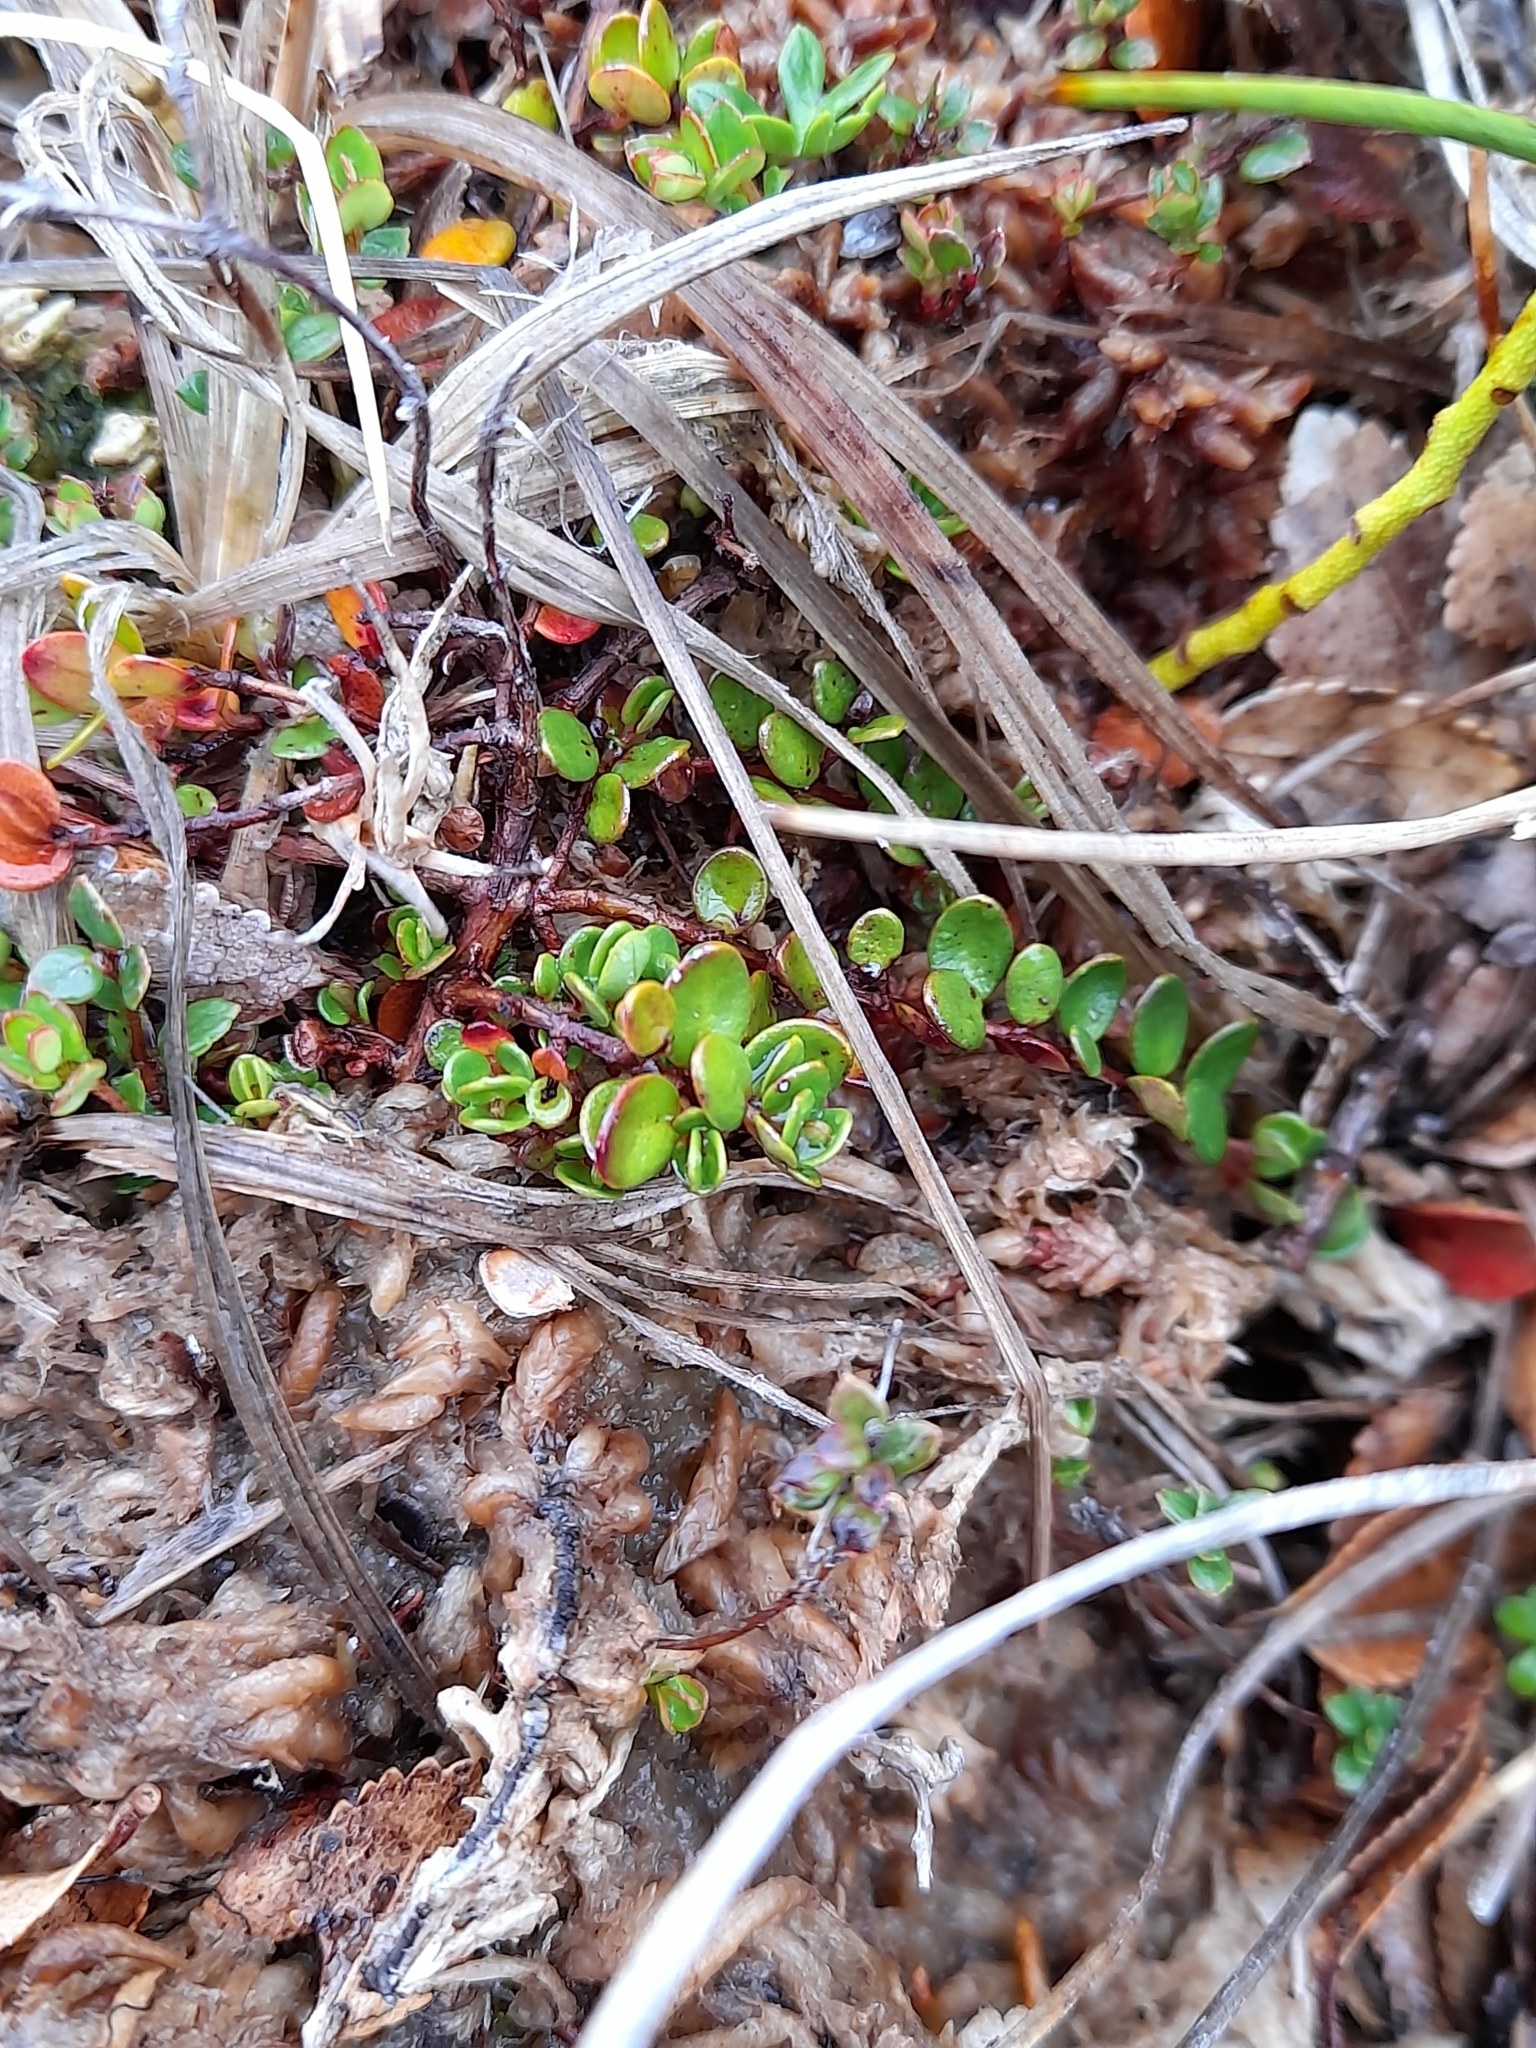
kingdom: Plantae
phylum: Tracheophyta
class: Magnoliopsida
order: Myrtales
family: Myrtaceae
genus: Myrteola
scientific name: Myrteola nummularia
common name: Cranberry-myrtle
